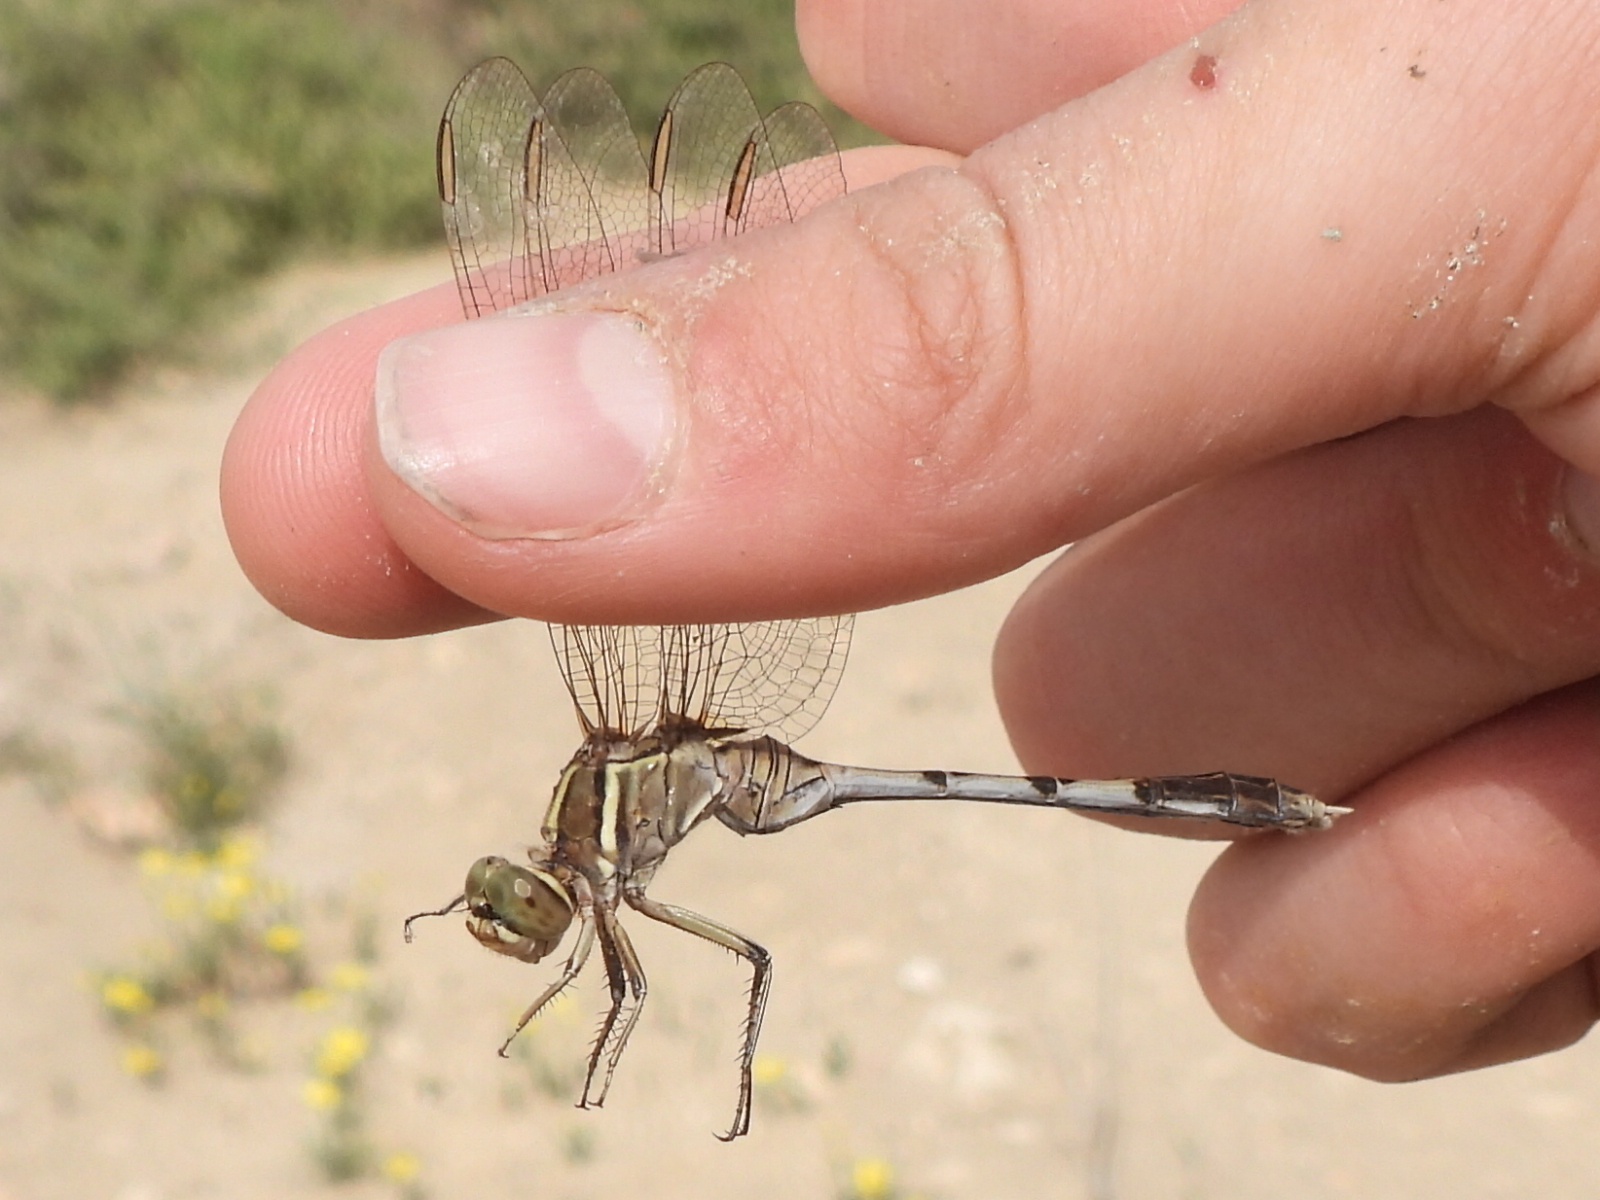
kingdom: Animalia
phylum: Arthropoda
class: Insecta
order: Odonata
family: Libellulidae
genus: Orthetrum
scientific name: Orthetrum sabina
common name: Slender skimmer
